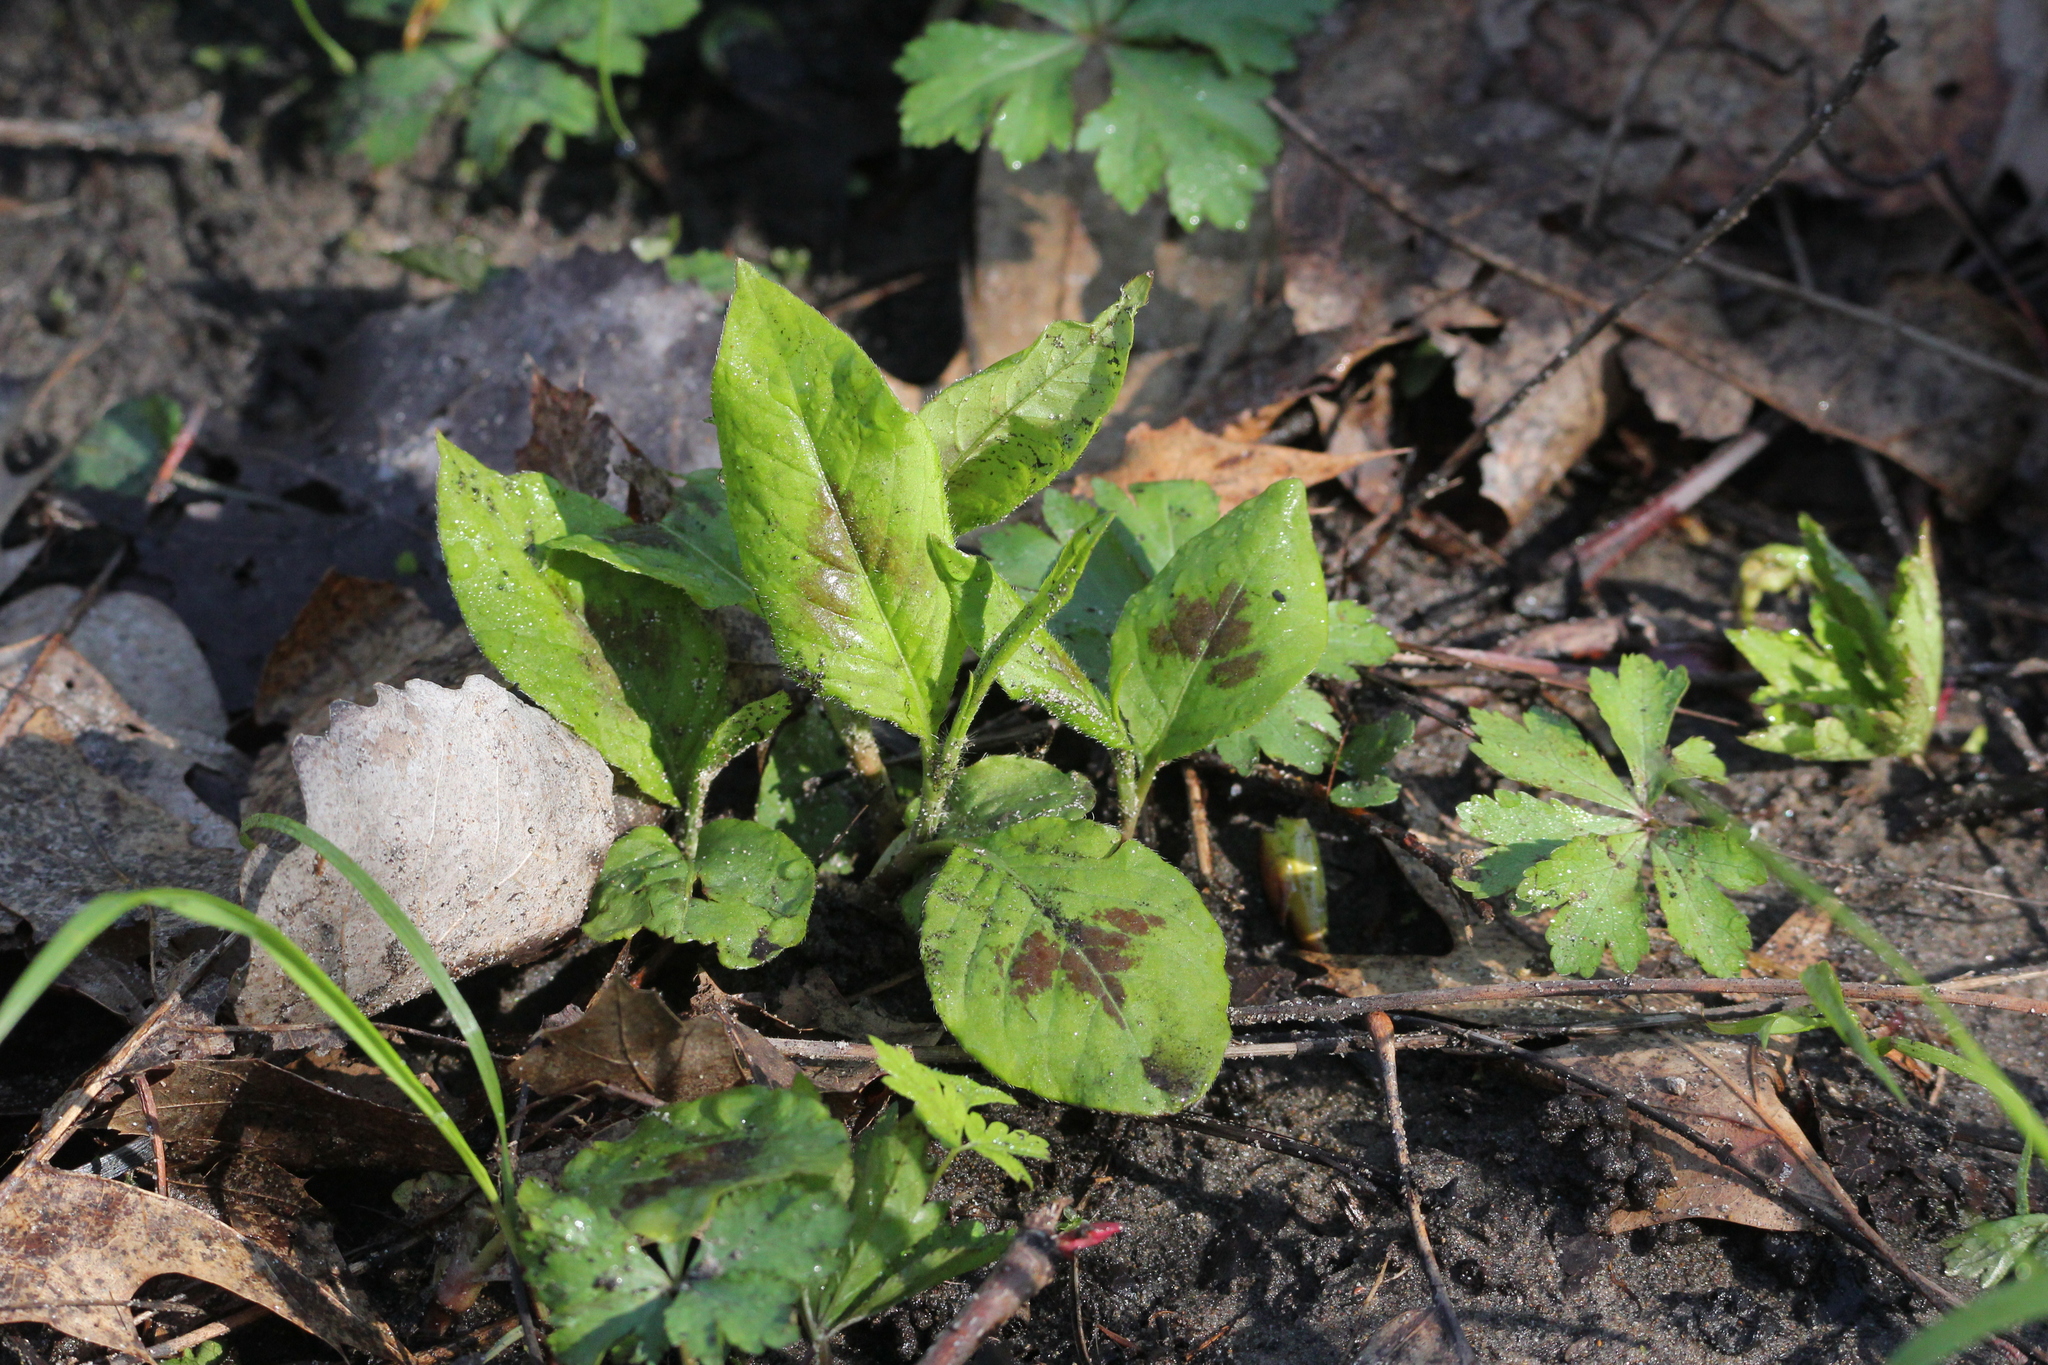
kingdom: Plantae
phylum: Tracheophyta
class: Magnoliopsida
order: Caryophyllales
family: Polygonaceae
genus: Persicaria
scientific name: Persicaria virginiana
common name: Jumpseed
